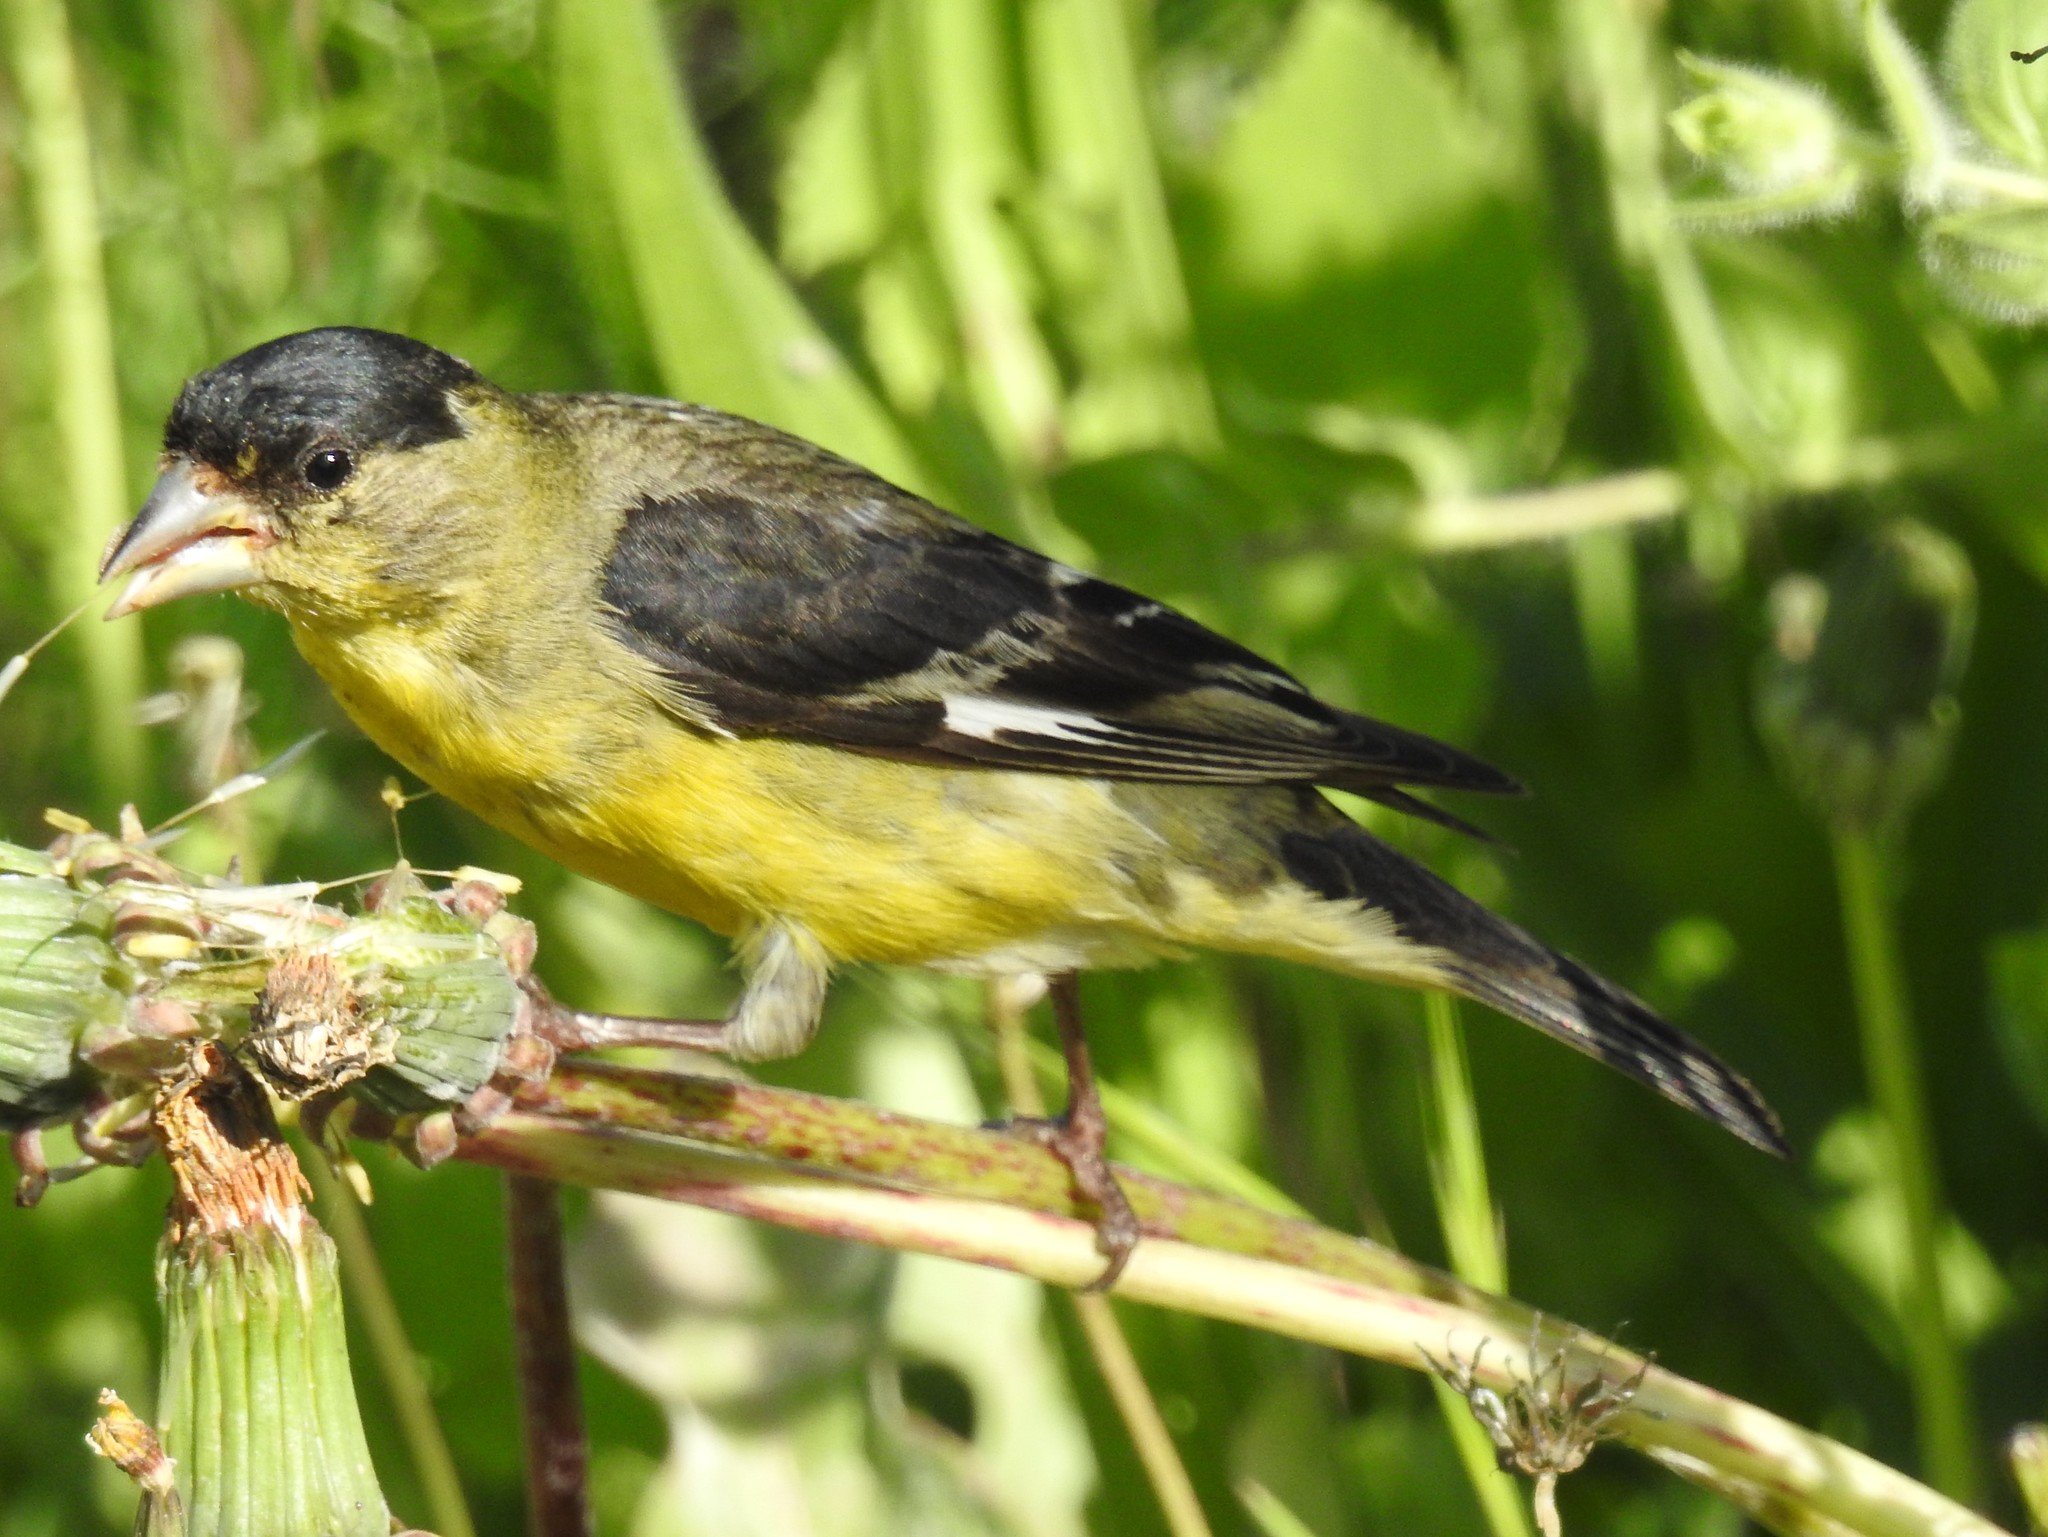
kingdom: Animalia
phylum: Chordata
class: Aves
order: Passeriformes
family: Fringillidae
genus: Spinus
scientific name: Spinus psaltria
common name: Lesser goldfinch
